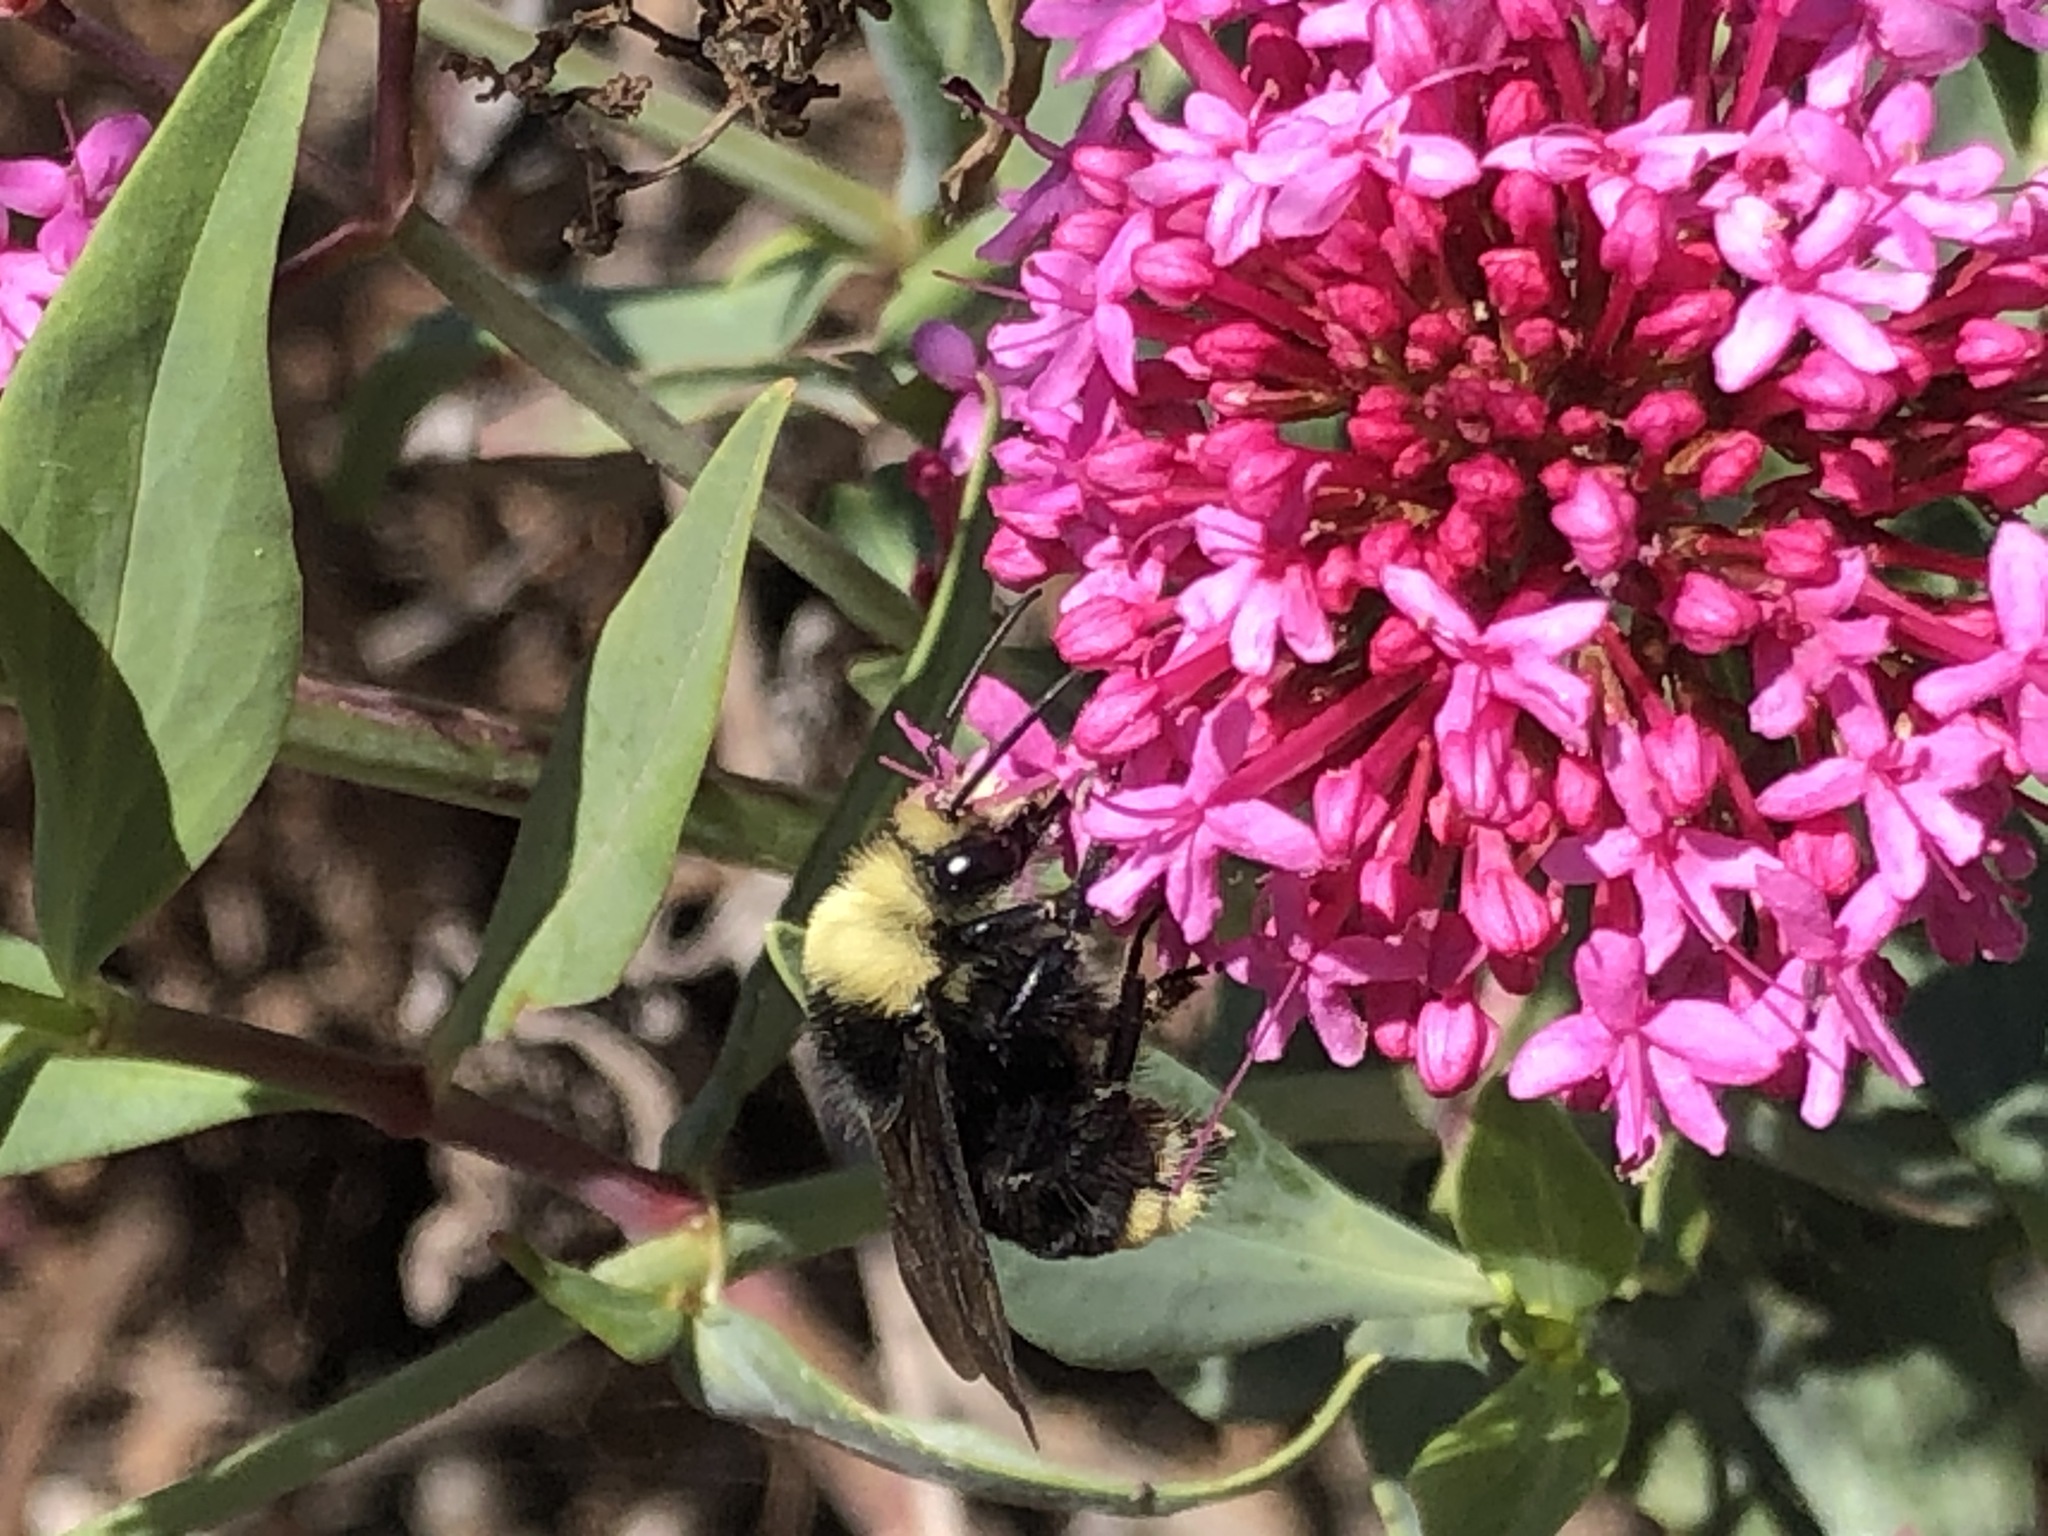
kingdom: Animalia
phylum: Arthropoda
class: Insecta
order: Hymenoptera
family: Apidae
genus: Bombus
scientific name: Bombus vosnesenskii
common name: Vosnesensky bumble bee
